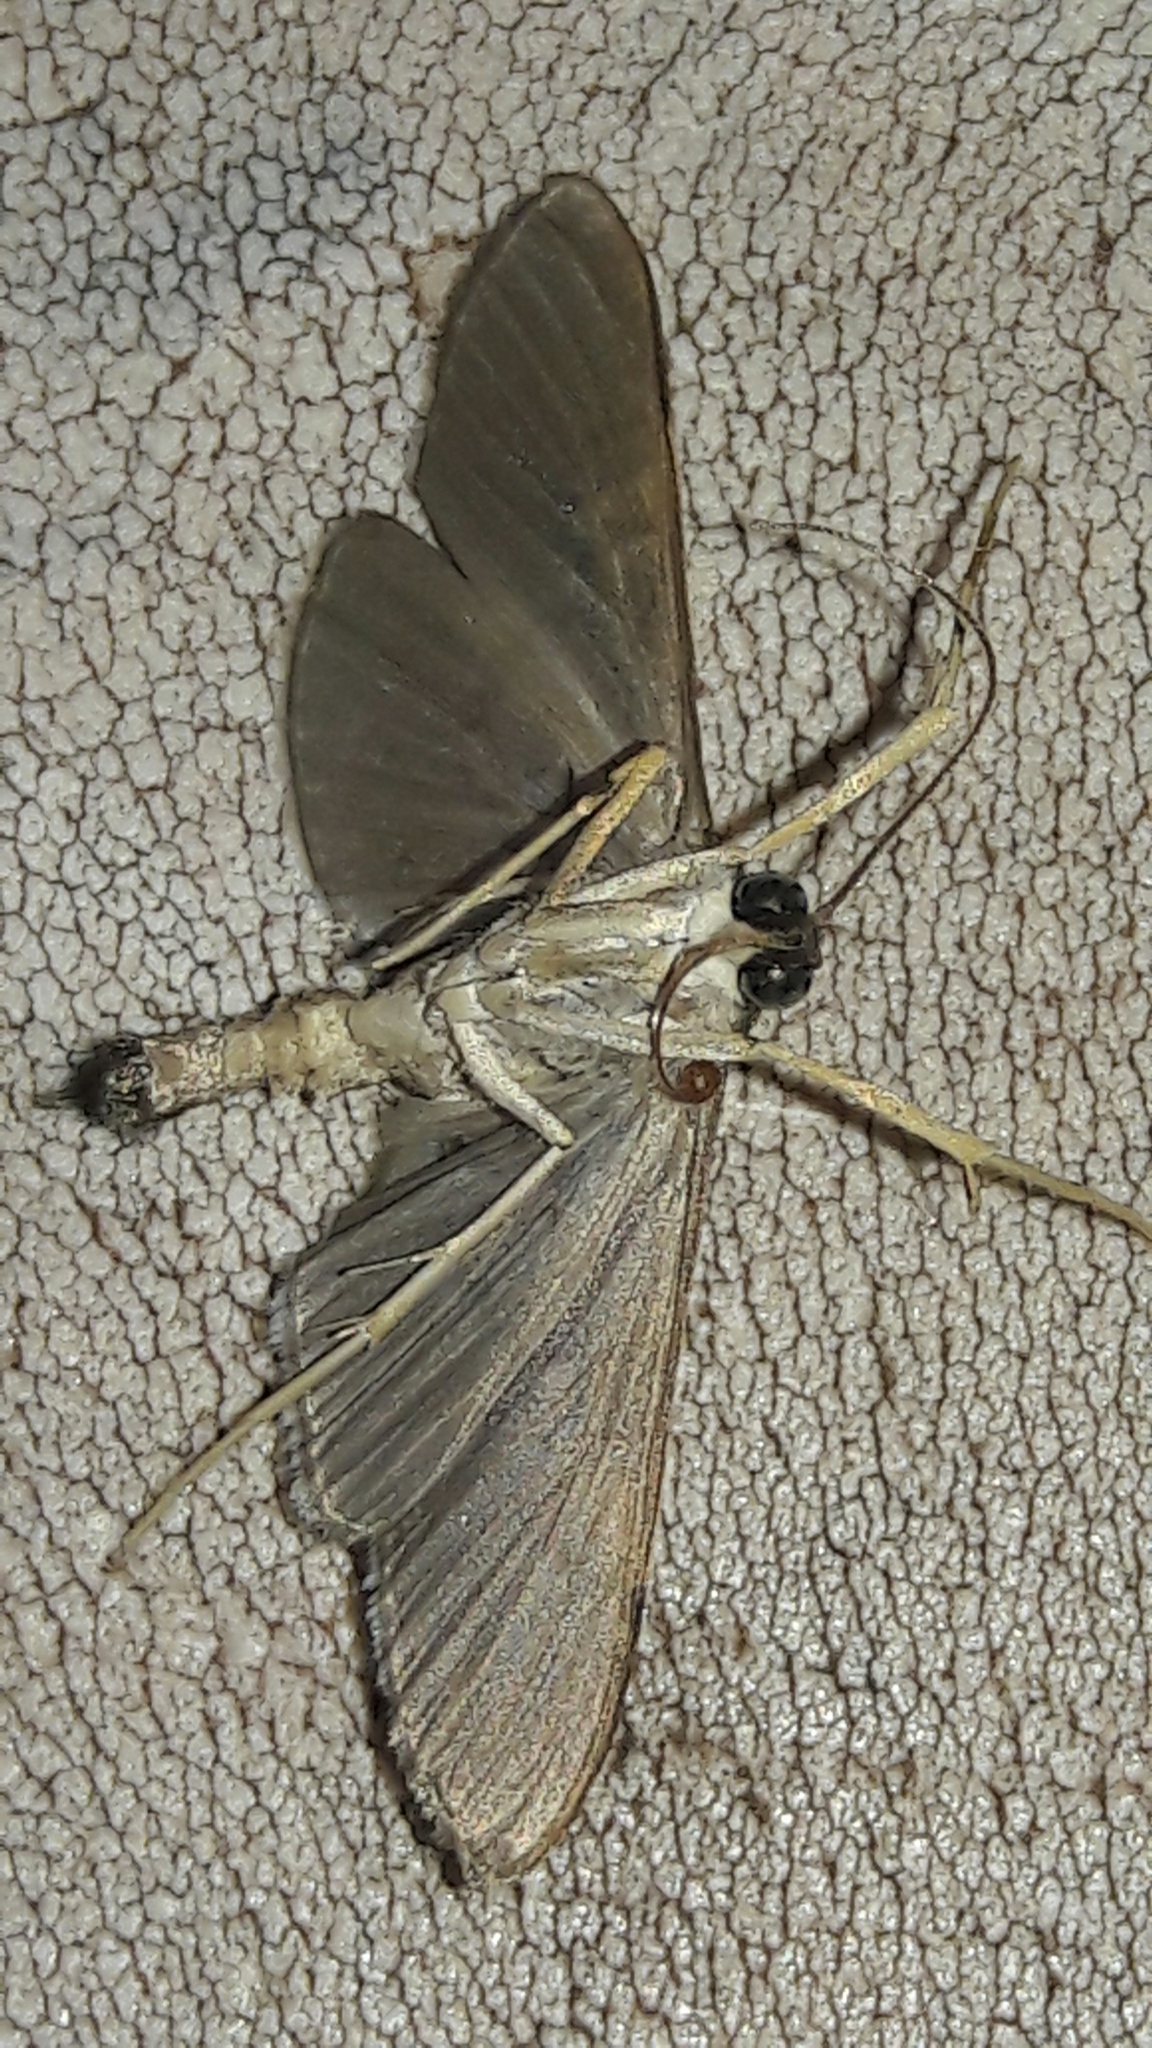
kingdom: Animalia
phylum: Arthropoda
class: Insecta
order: Lepidoptera
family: Crambidae
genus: Omiodes
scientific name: Omiodes simialis
